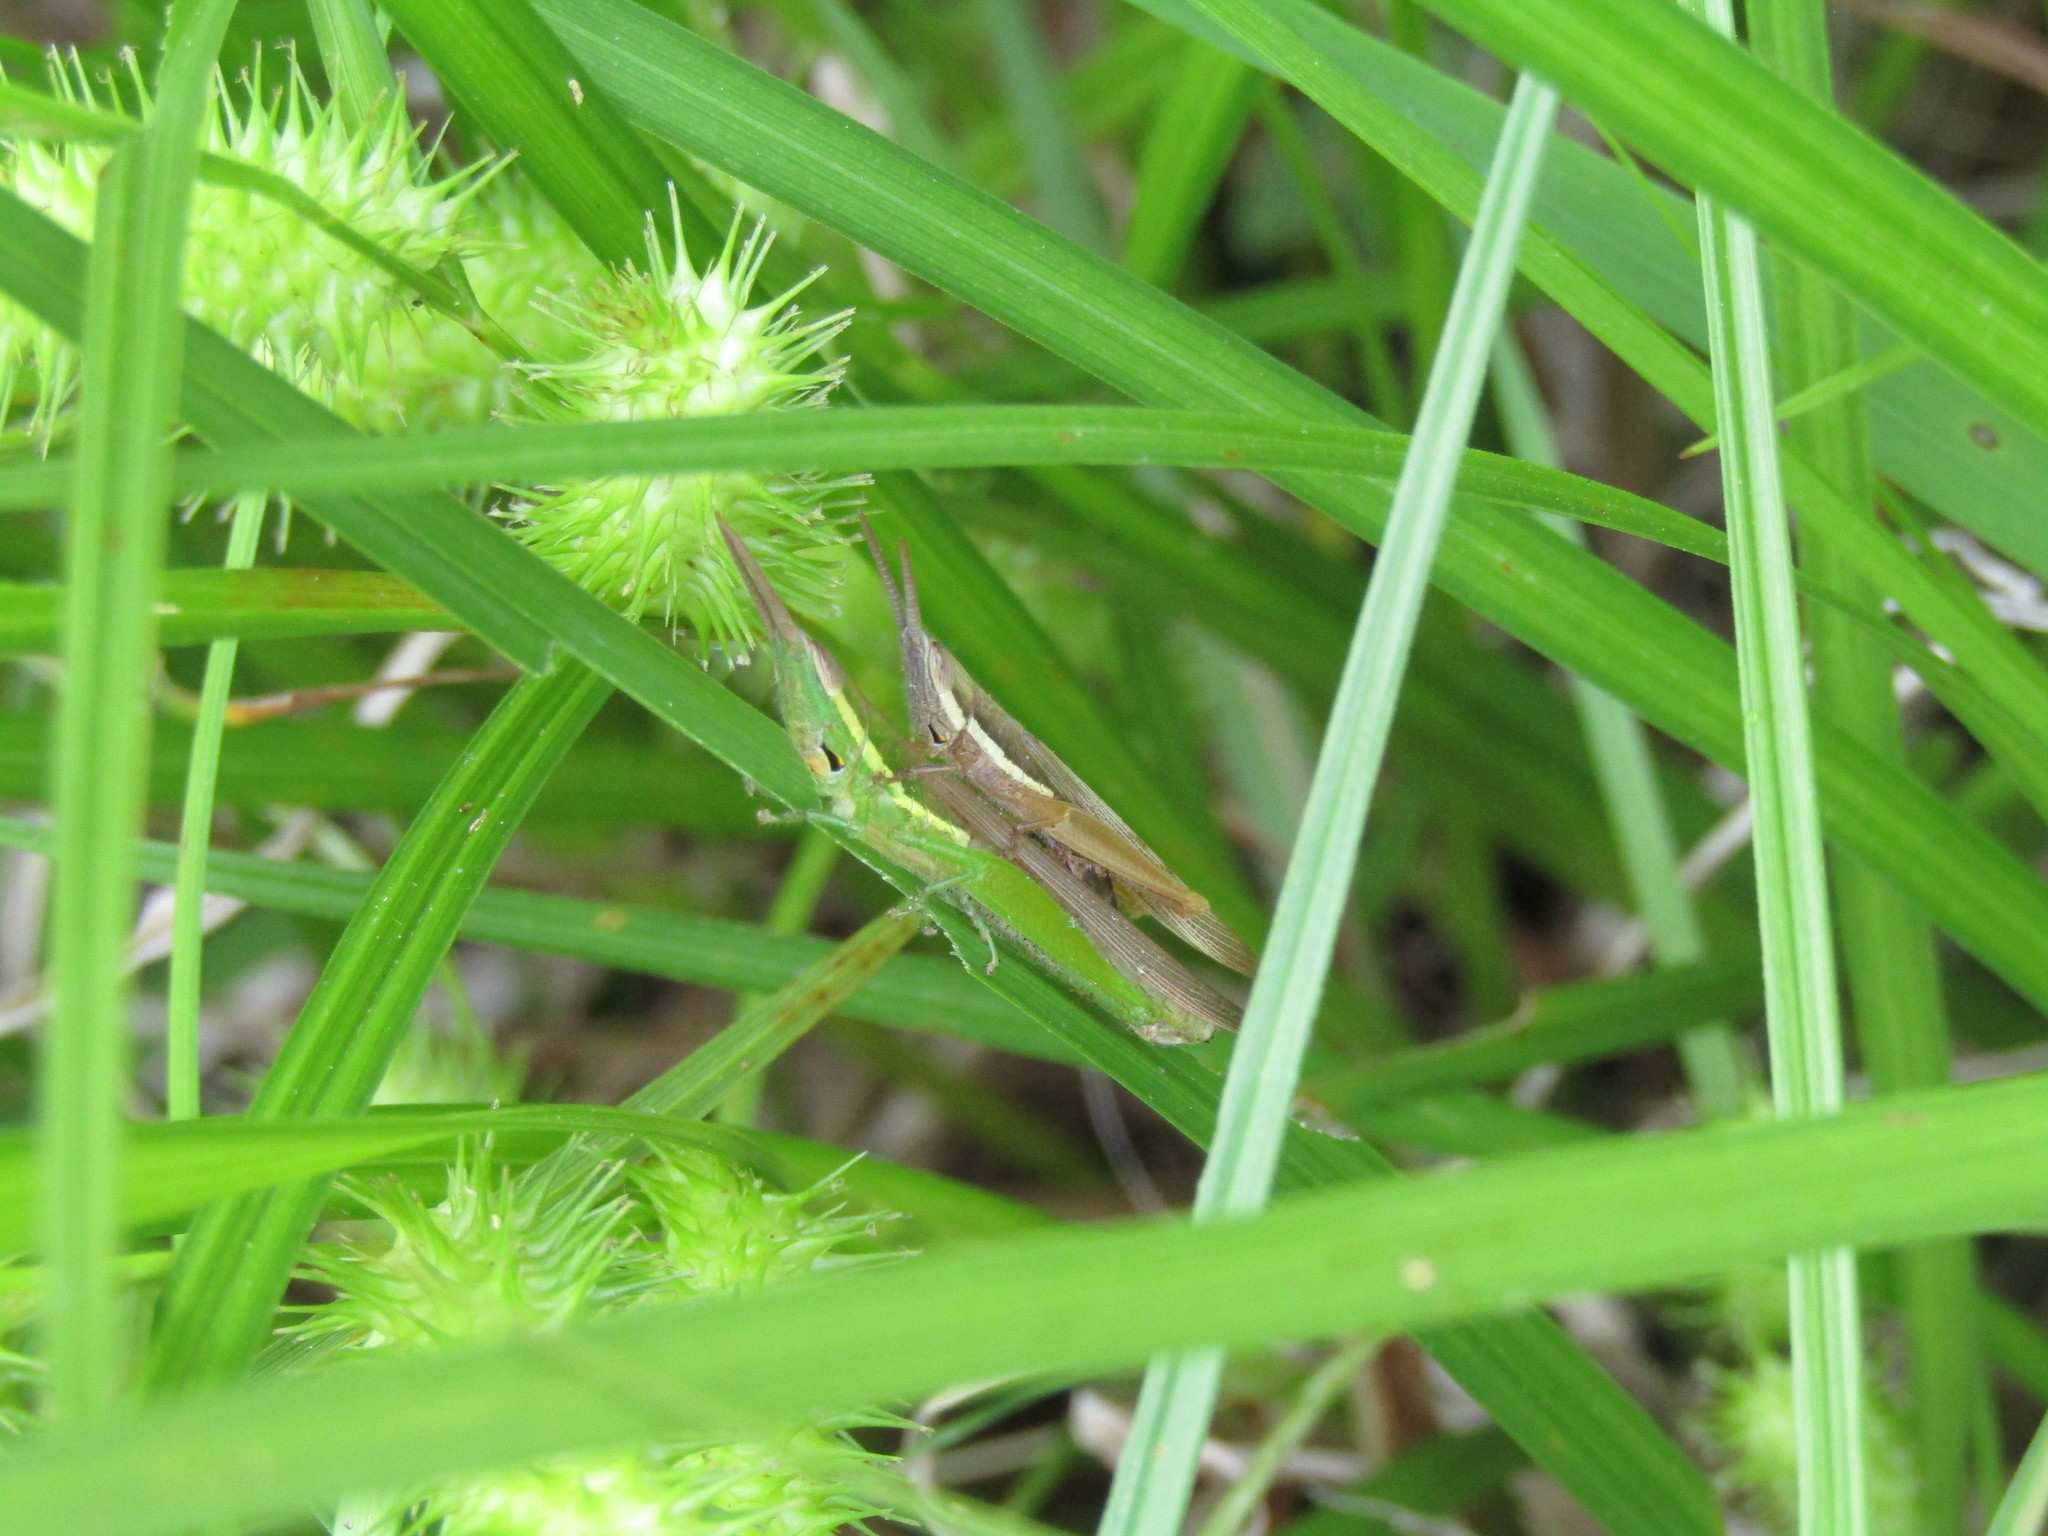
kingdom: Animalia
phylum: Arthropoda
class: Insecta
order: Orthoptera
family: Acrididae
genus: Leptysma
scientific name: Leptysma marginicollis
